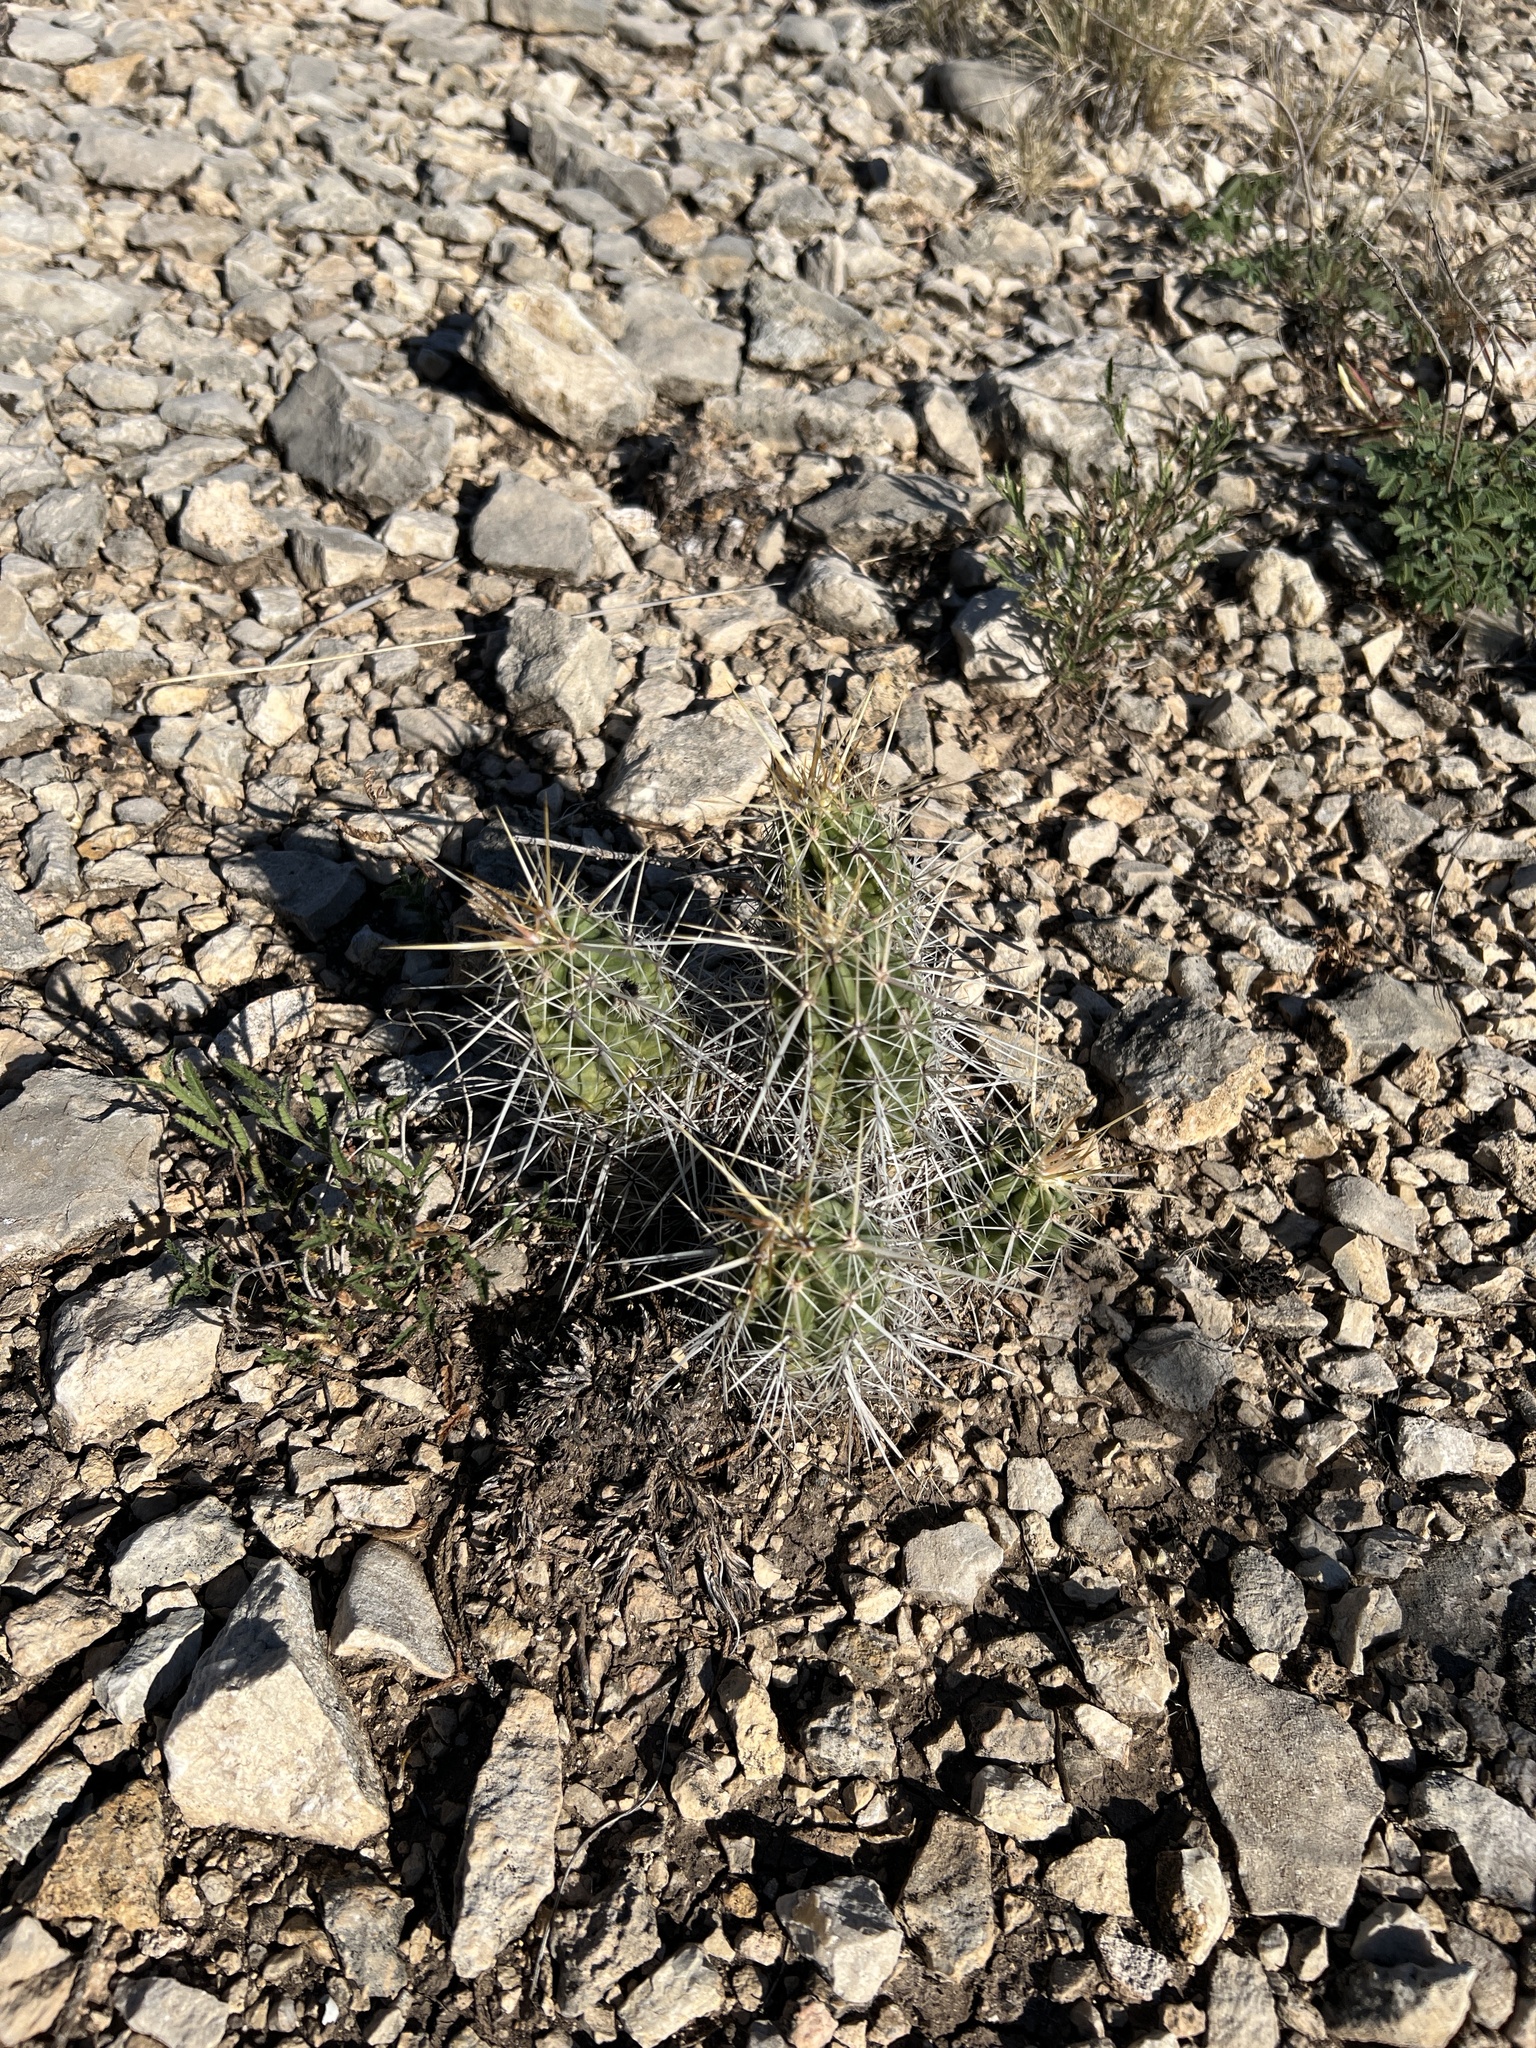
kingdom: Plantae
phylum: Tracheophyta
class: Magnoliopsida
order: Caryophyllales
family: Cactaceae
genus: Echinocereus
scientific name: Echinocereus enneacanthus
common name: Pitaya
